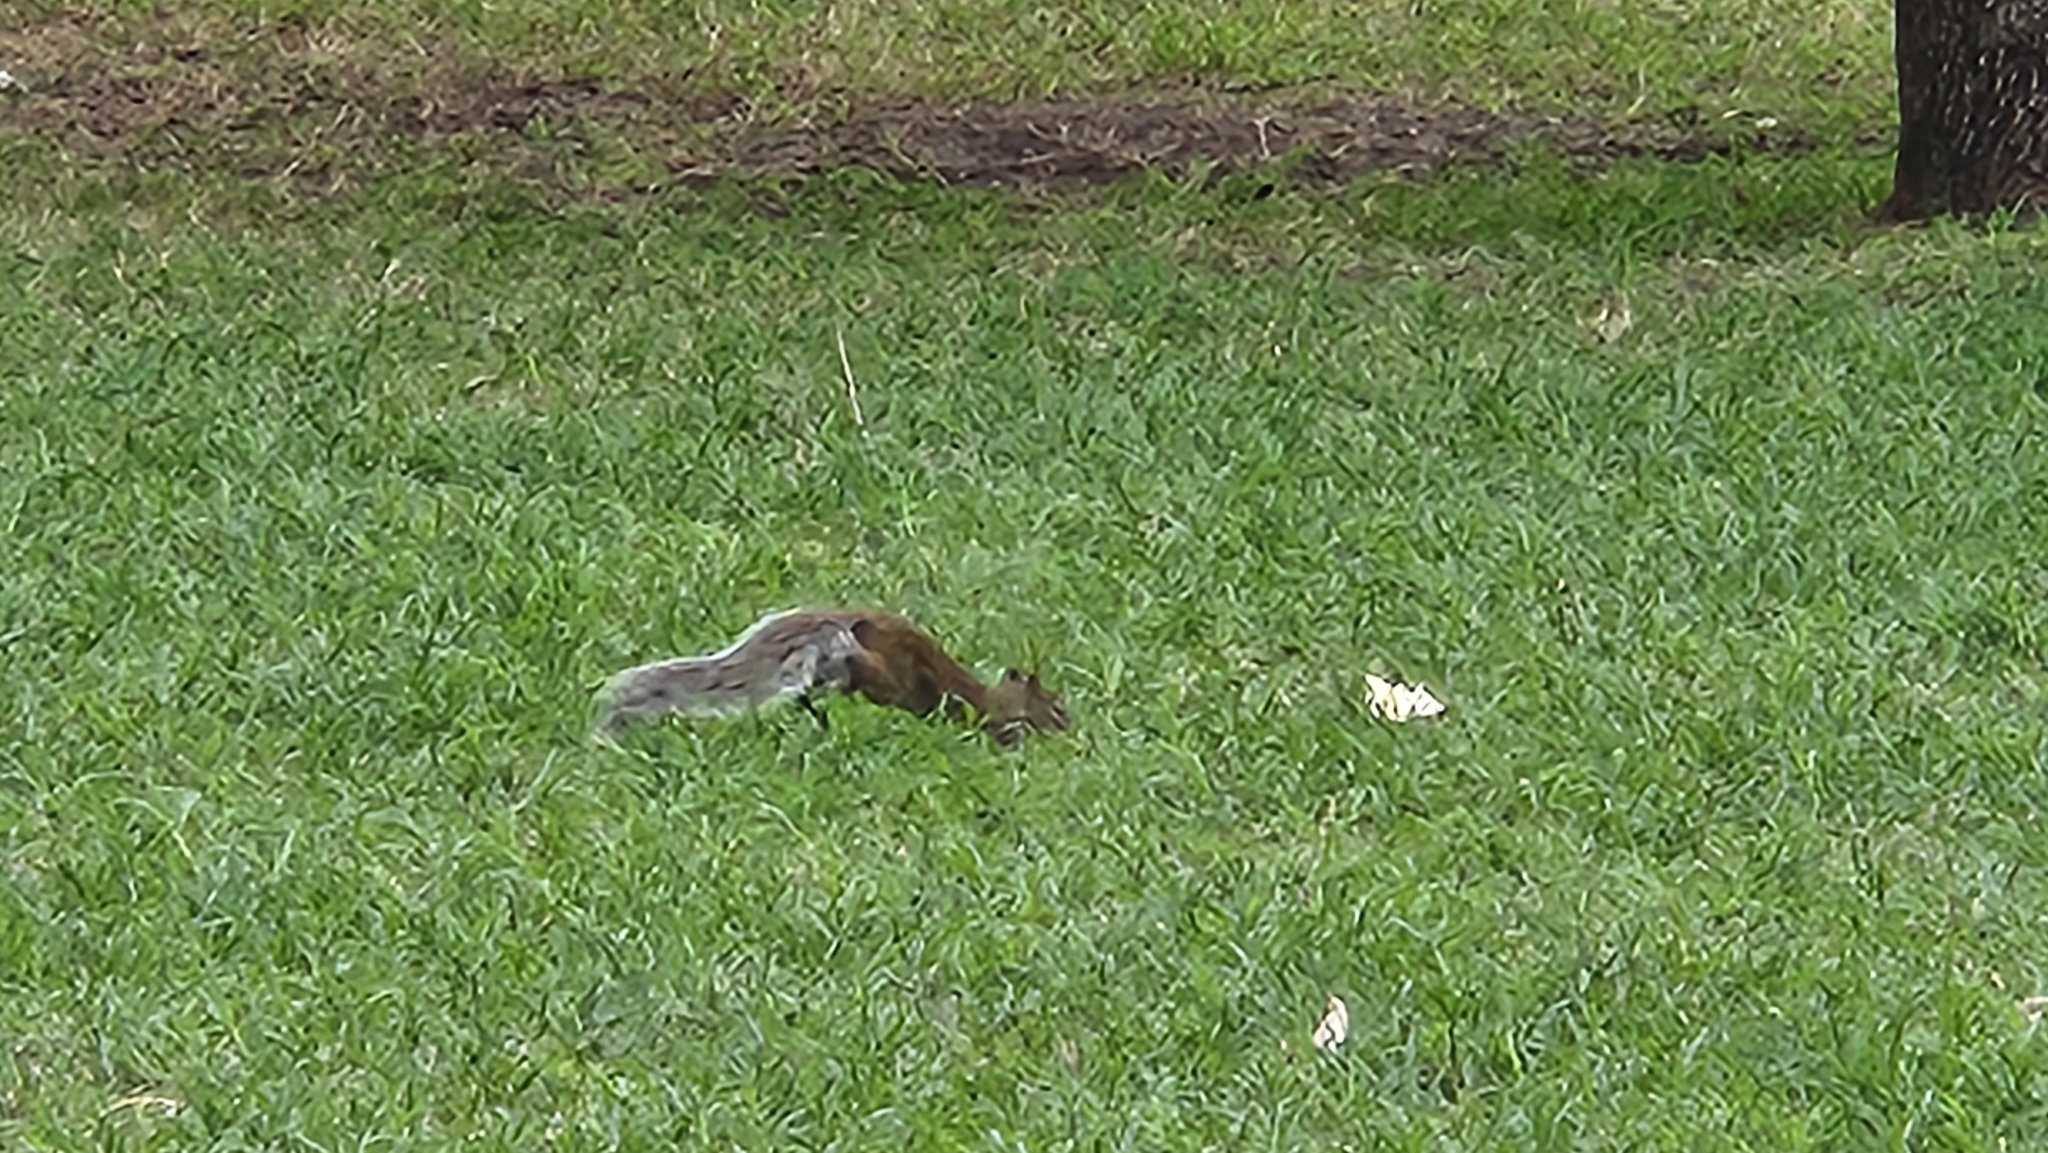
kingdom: Animalia
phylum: Chordata
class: Mammalia
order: Rodentia
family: Sciuridae
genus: Sciurus
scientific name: Sciurus alleni
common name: Allen's squirrel
